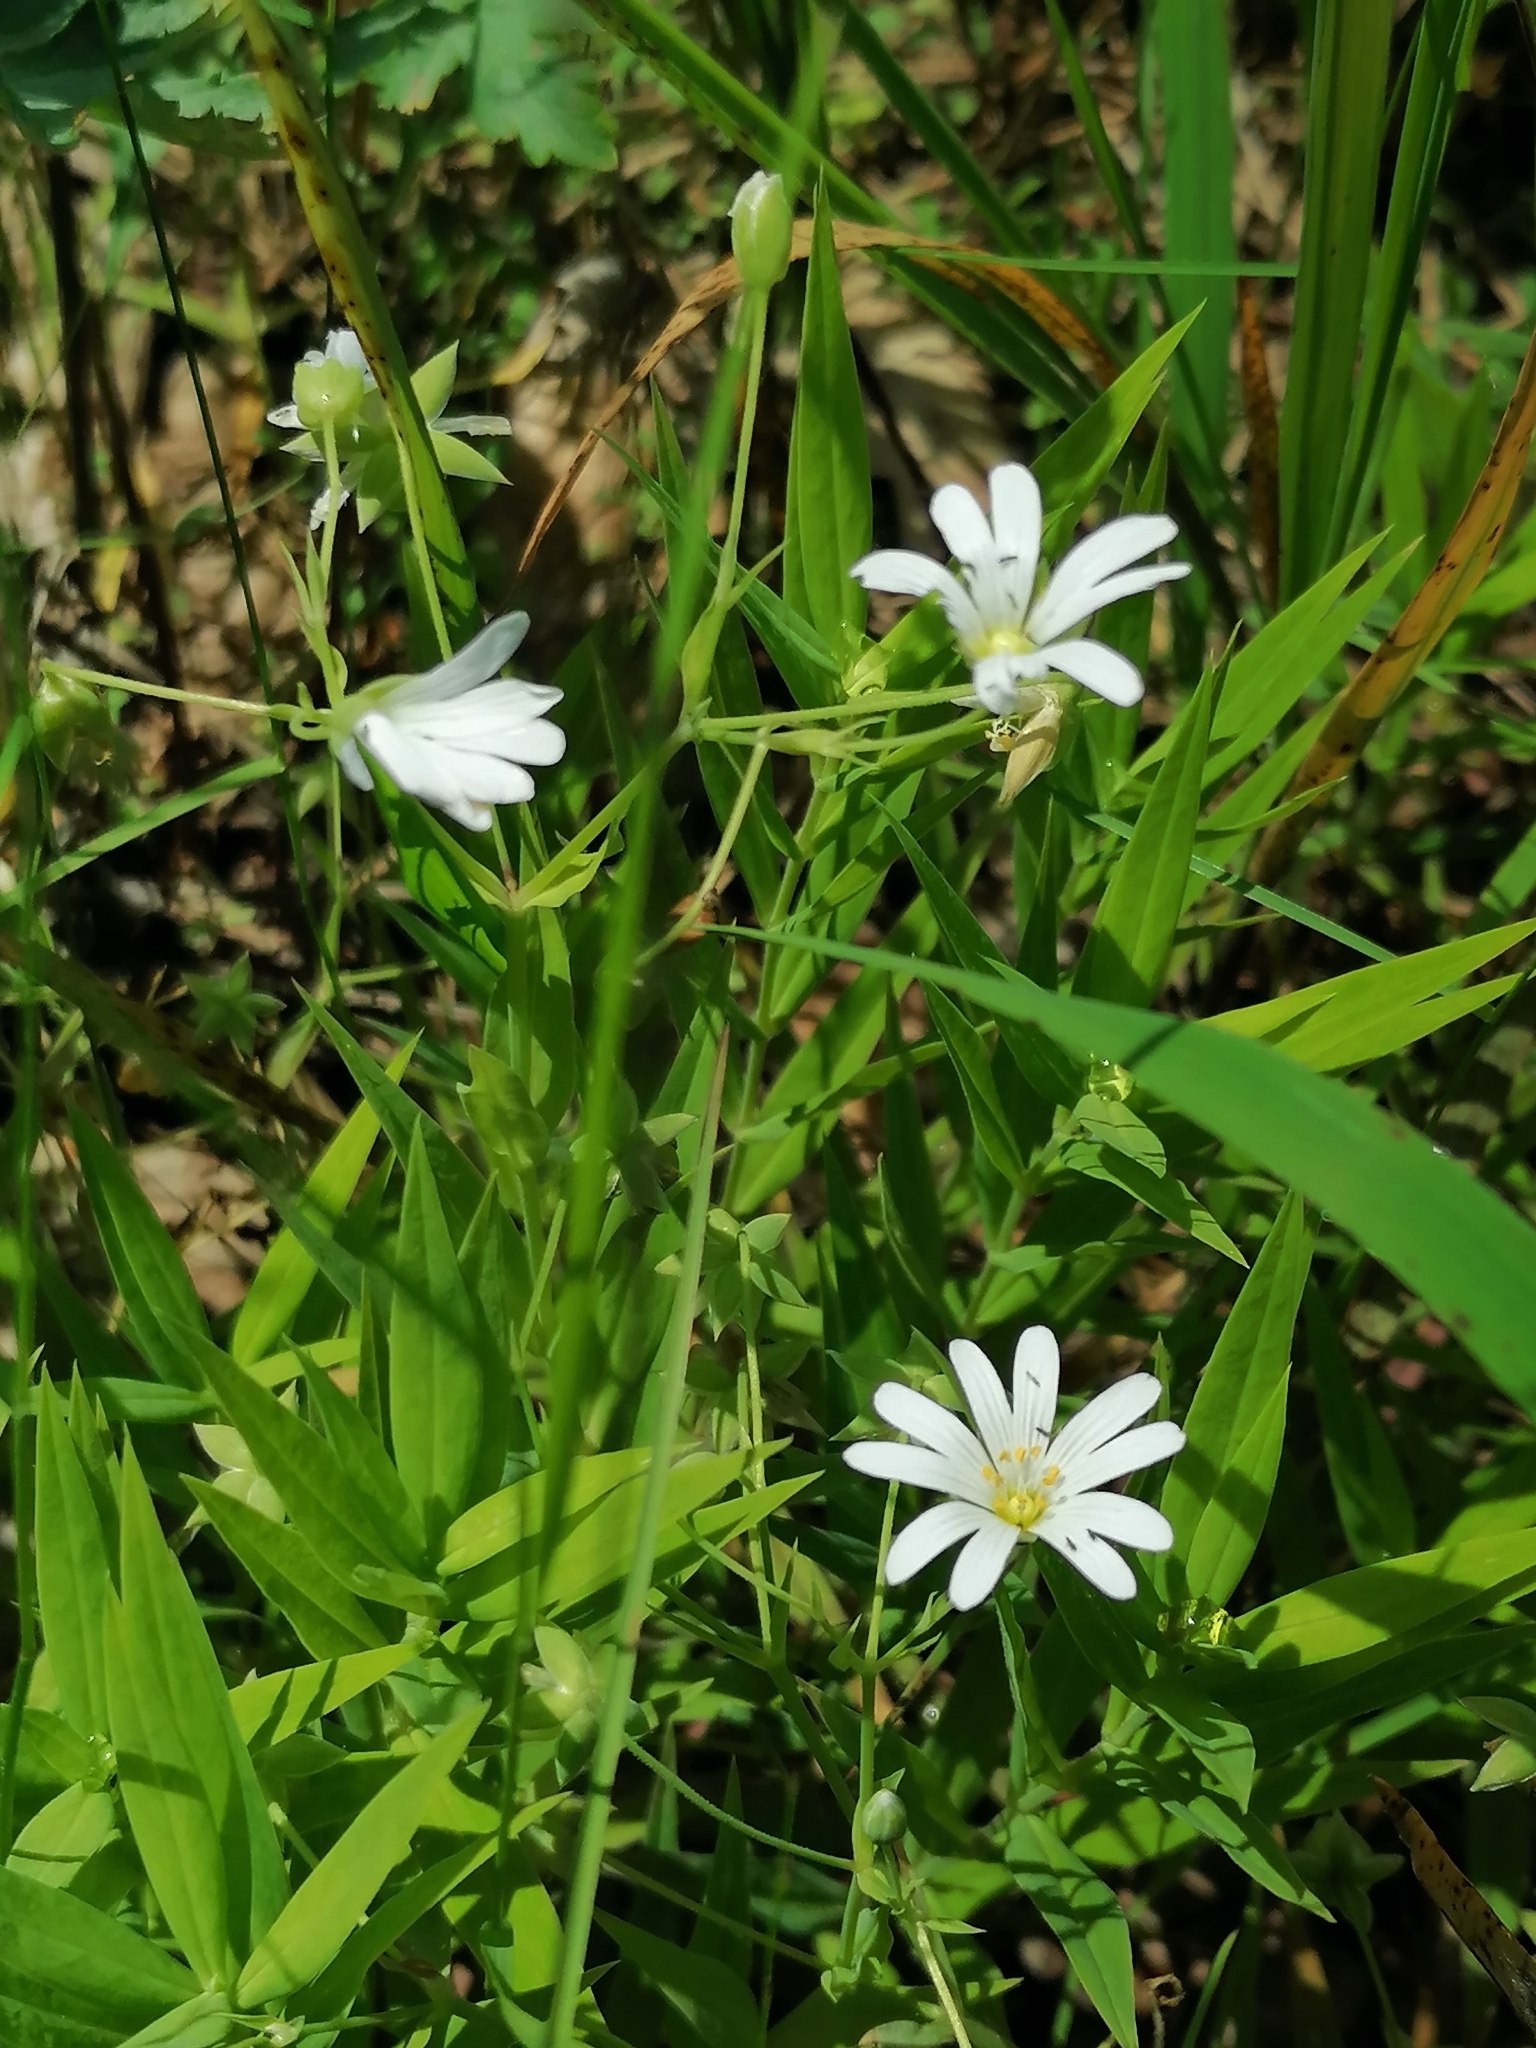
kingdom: Plantae
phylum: Tracheophyta
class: Magnoliopsida
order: Caryophyllales
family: Caryophyllaceae
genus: Rabelera
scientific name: Rabelera holostea
